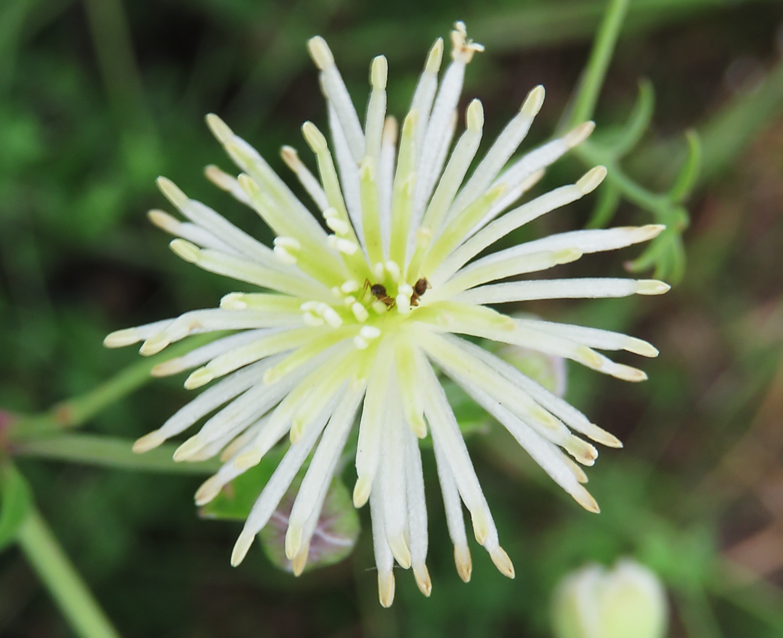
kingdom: Plantae
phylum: Tracheophyta
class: Magnoliopsida
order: Ranunculales
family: Ranunculaceae
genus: Clematis
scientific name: Clematis drummondii
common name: Texas virgin's bower
